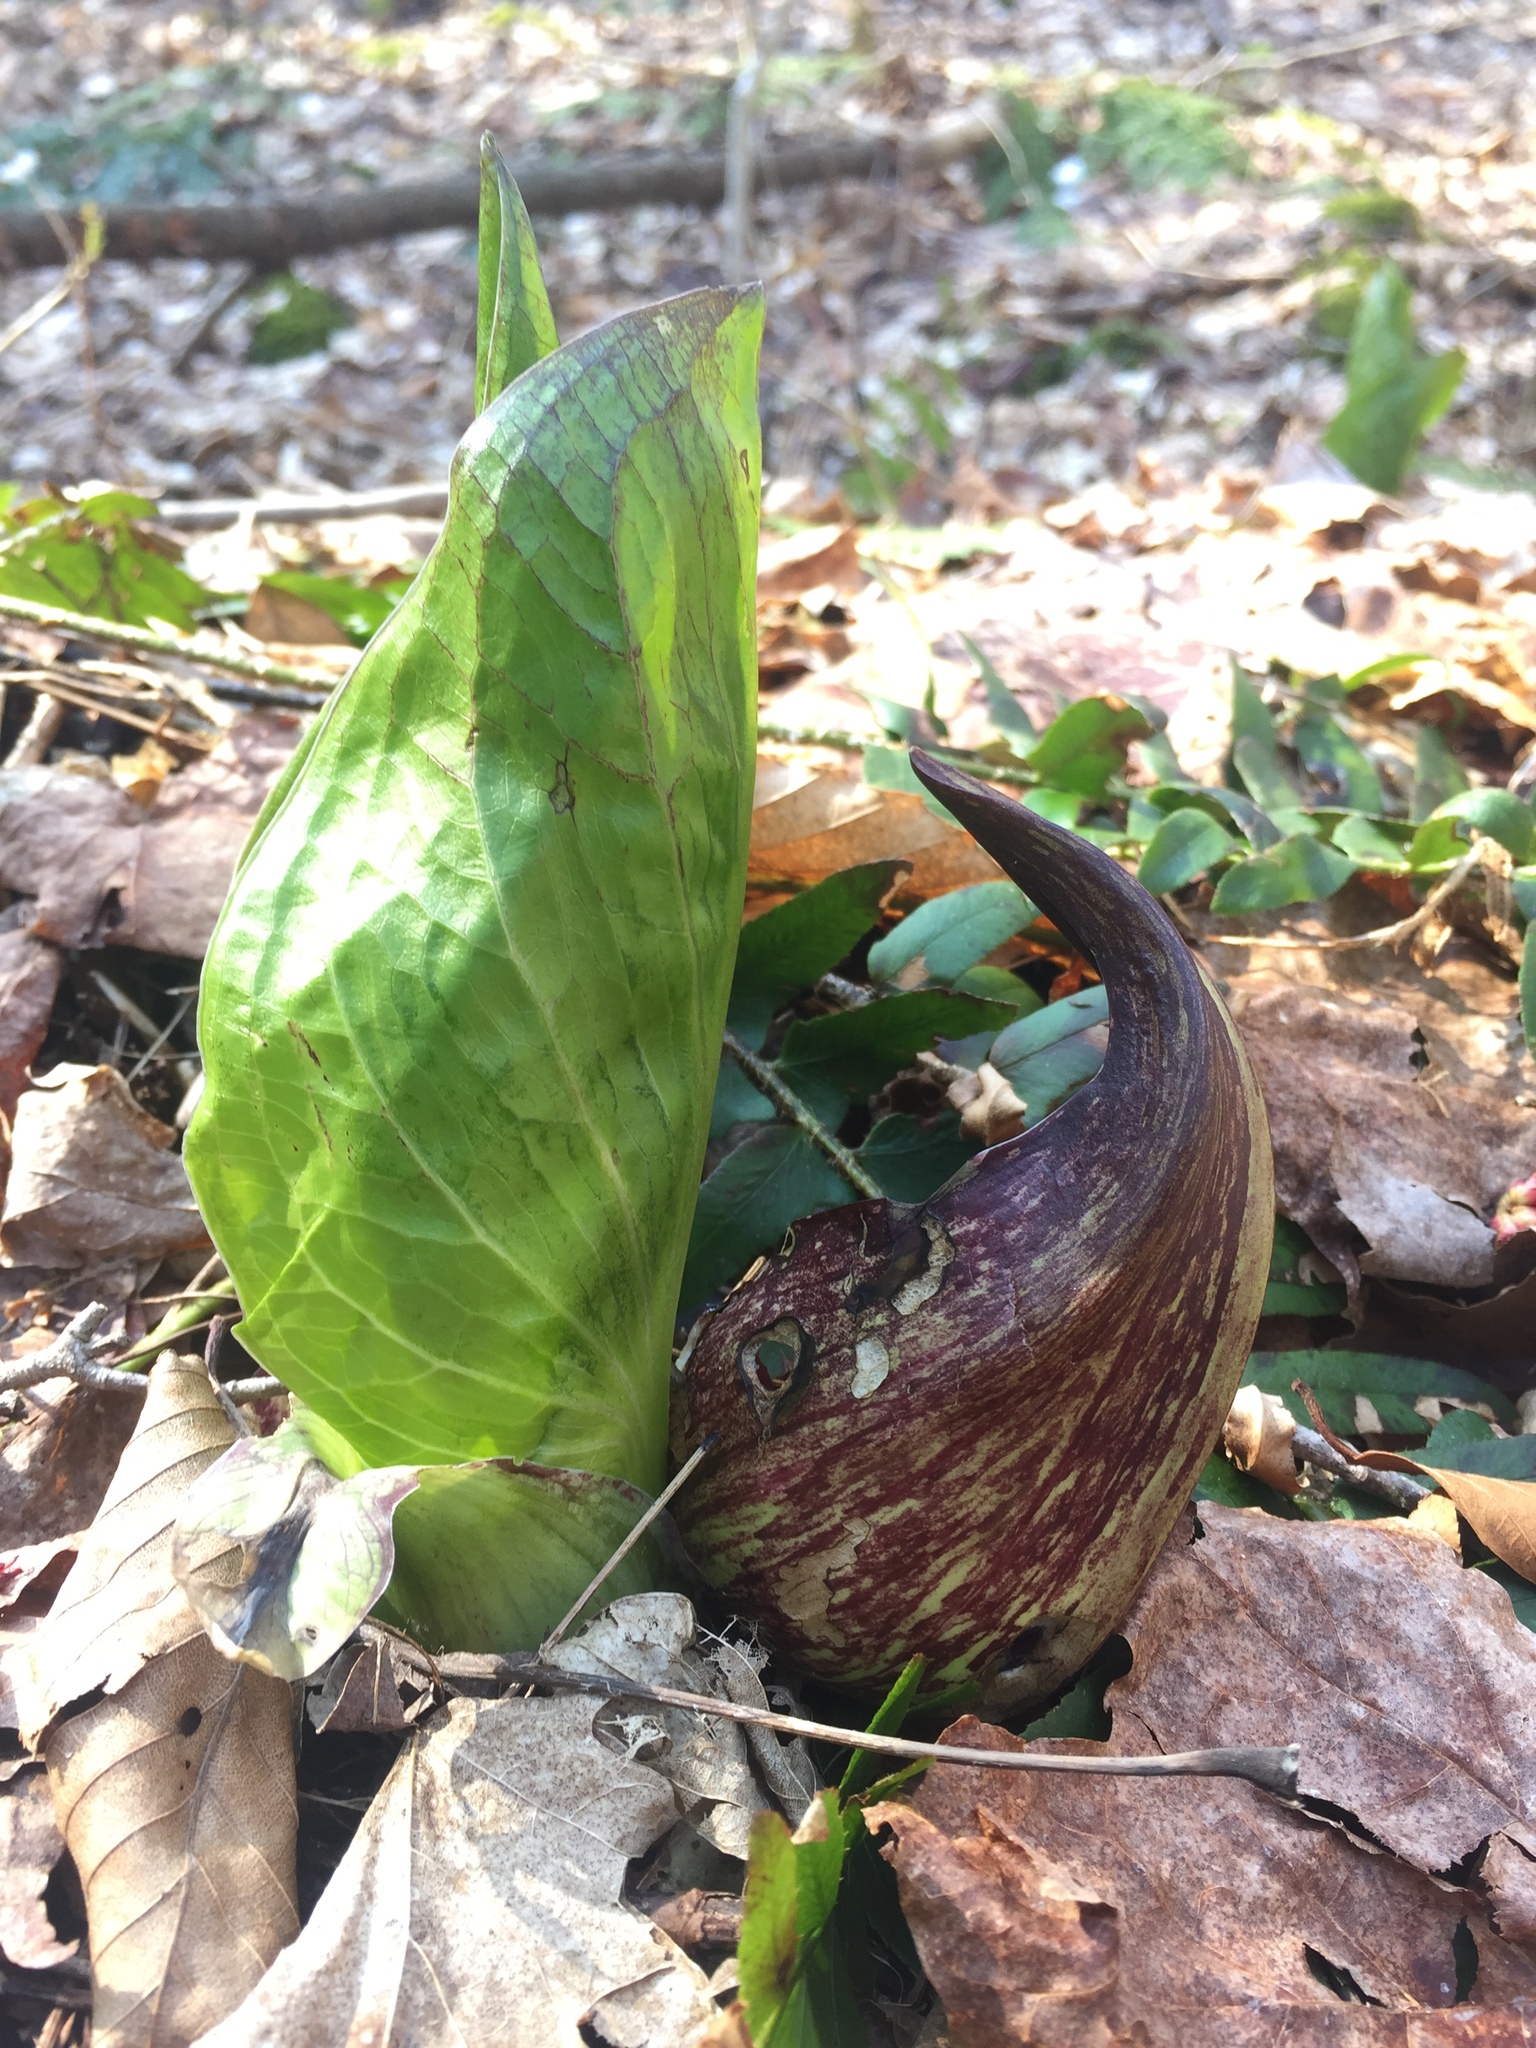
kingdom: Plantae
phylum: Tracheophyta
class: Liliopsida
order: Alismatales
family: Araceae
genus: Symplocarpus
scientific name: Symplocarpus foetidus
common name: Eastern skunk cabbage
